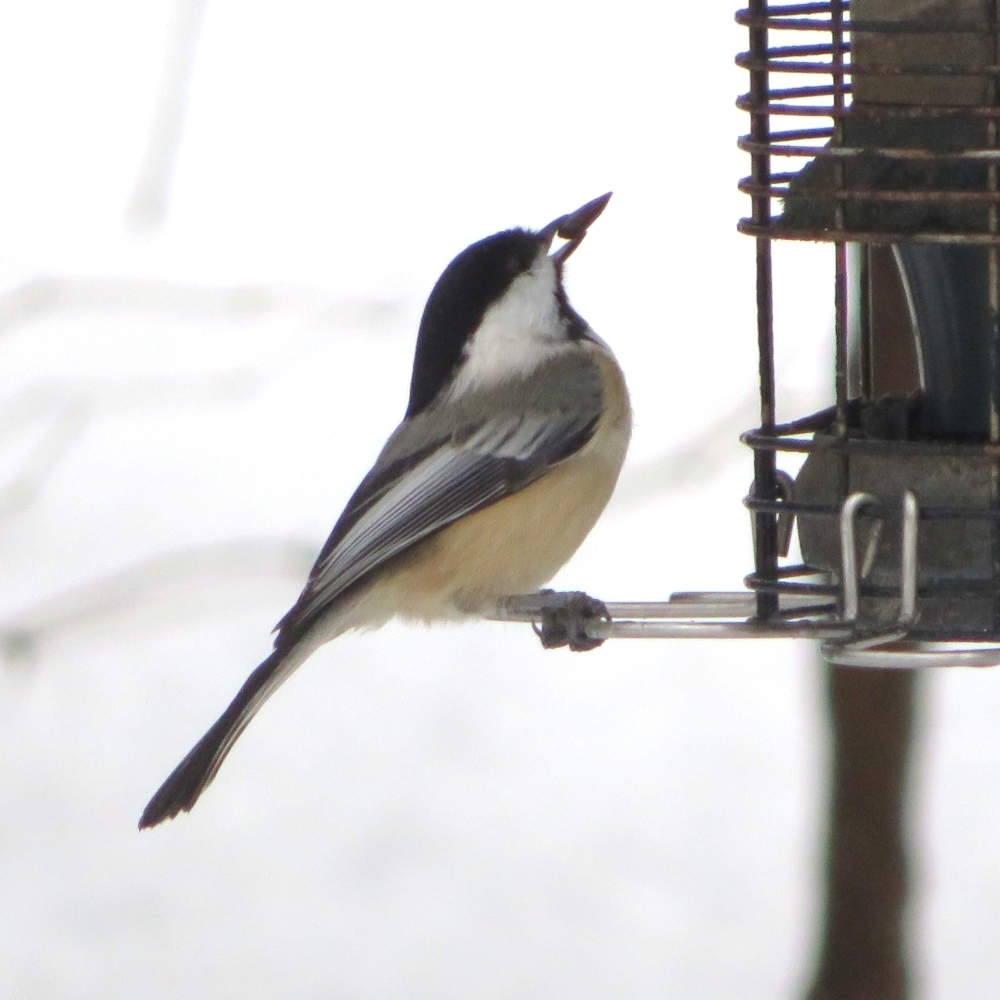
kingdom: Animalia
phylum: Chordata
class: Aves
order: Passeriformes
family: Paridae
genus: Poecile
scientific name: Poecile atricapillus
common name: Black-capped chickadee
